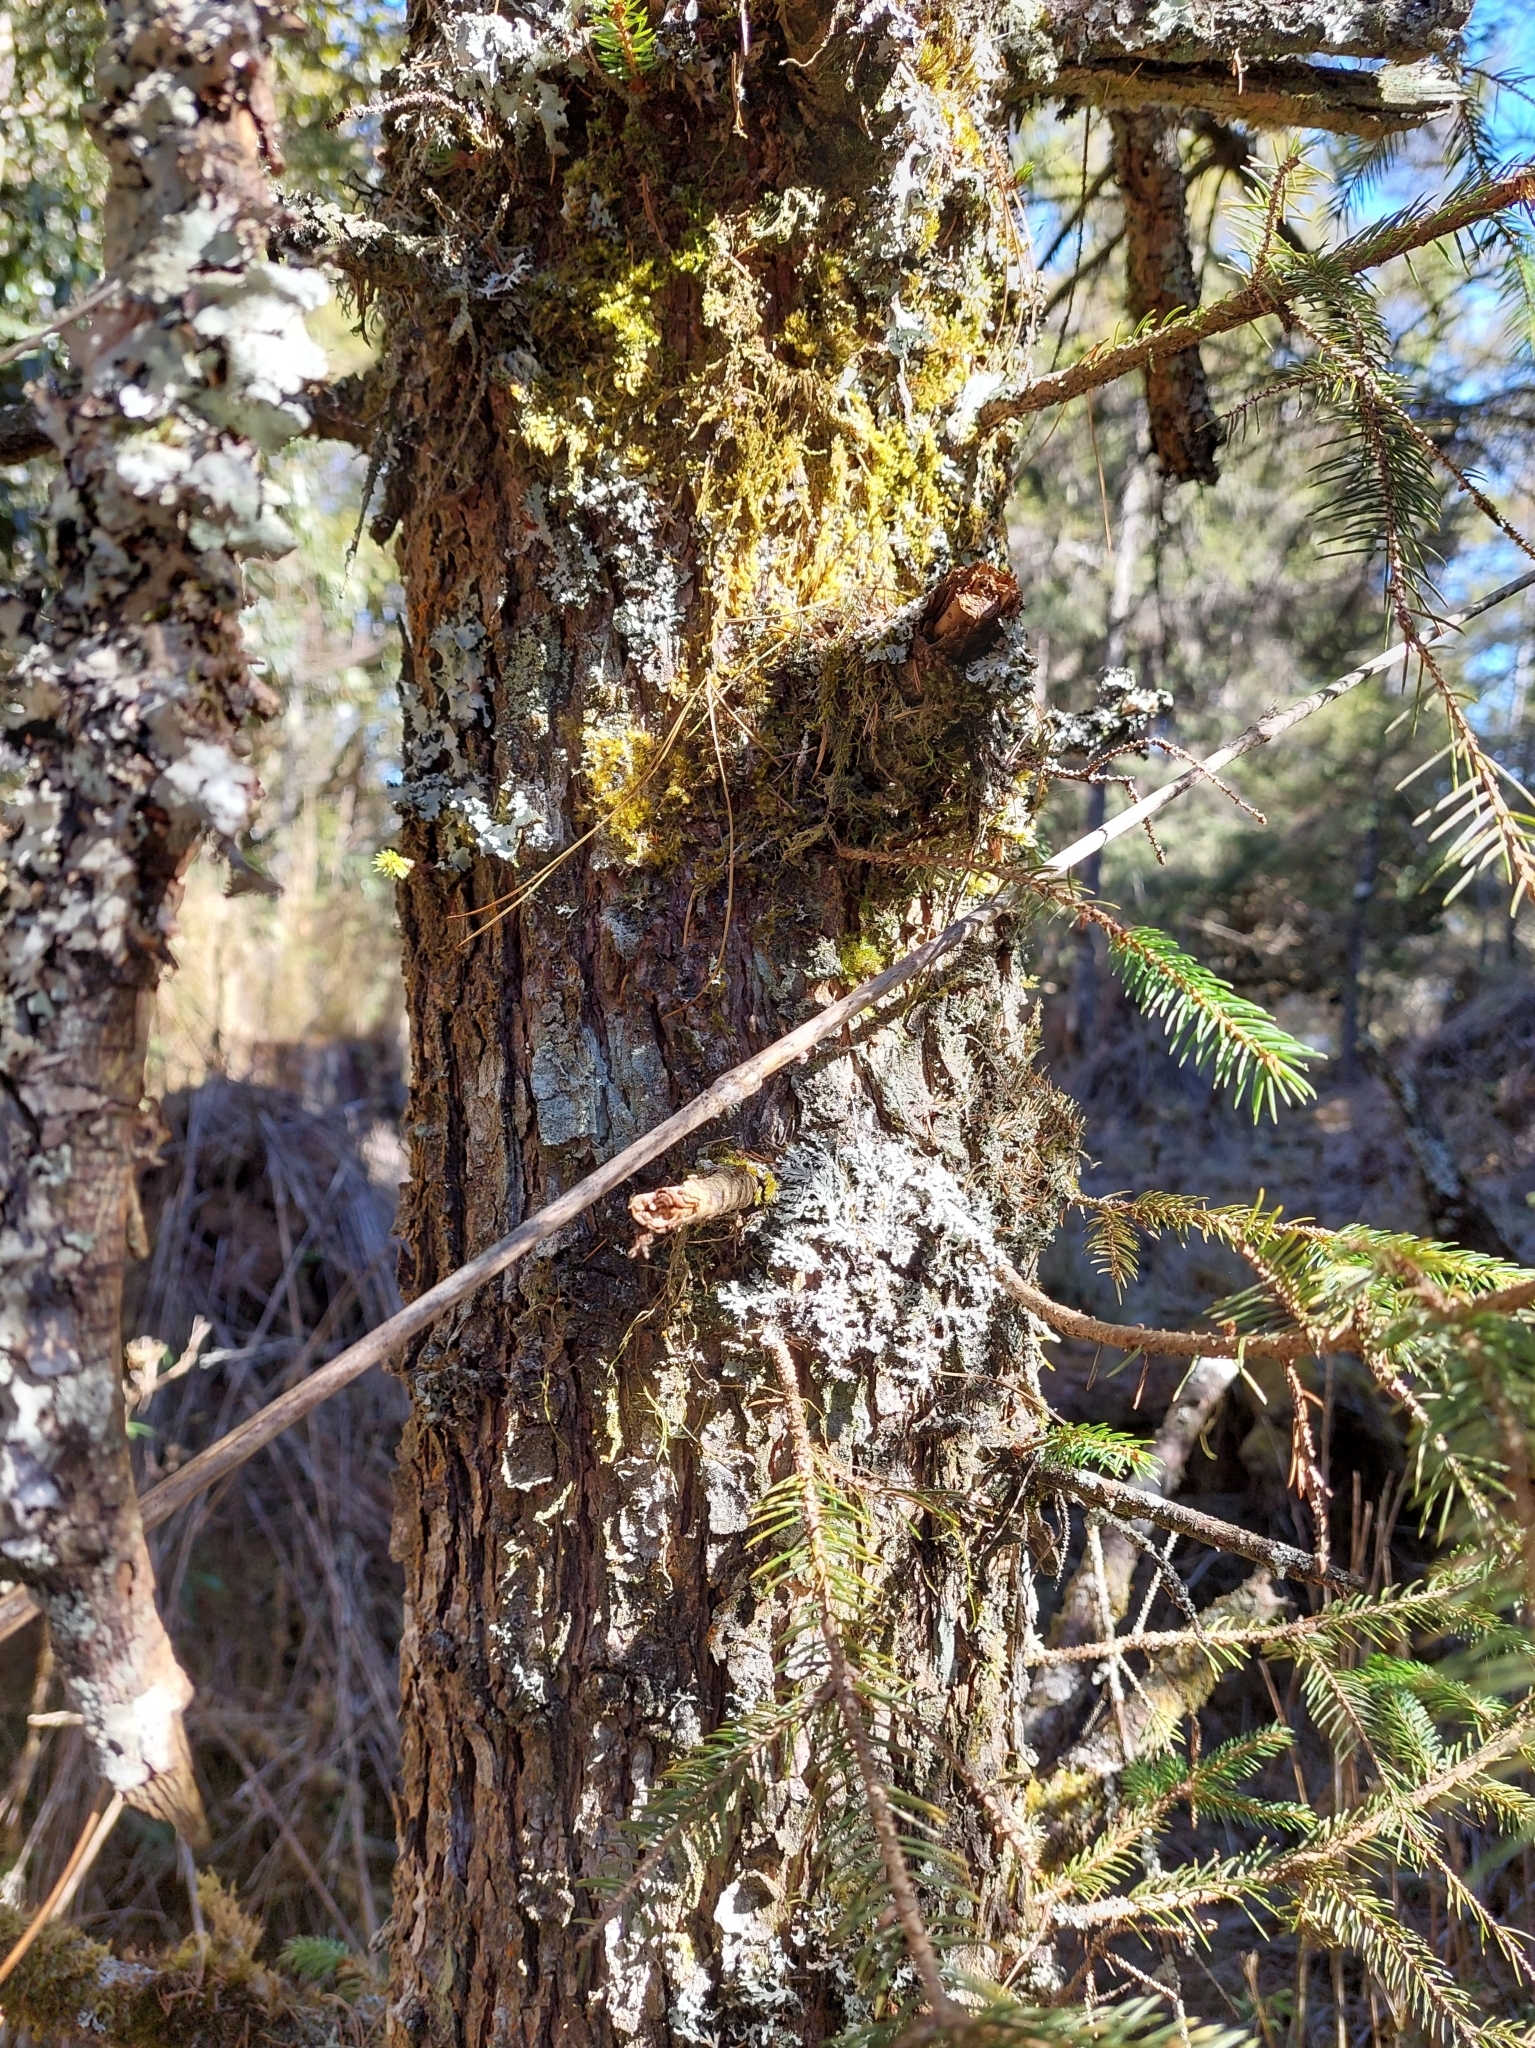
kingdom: Plantae
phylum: Tracheophyta
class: Pinopsida
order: Pinales
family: Pinaceae
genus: Picea
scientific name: Picea morrisonicola
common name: Mount morrison spruce
